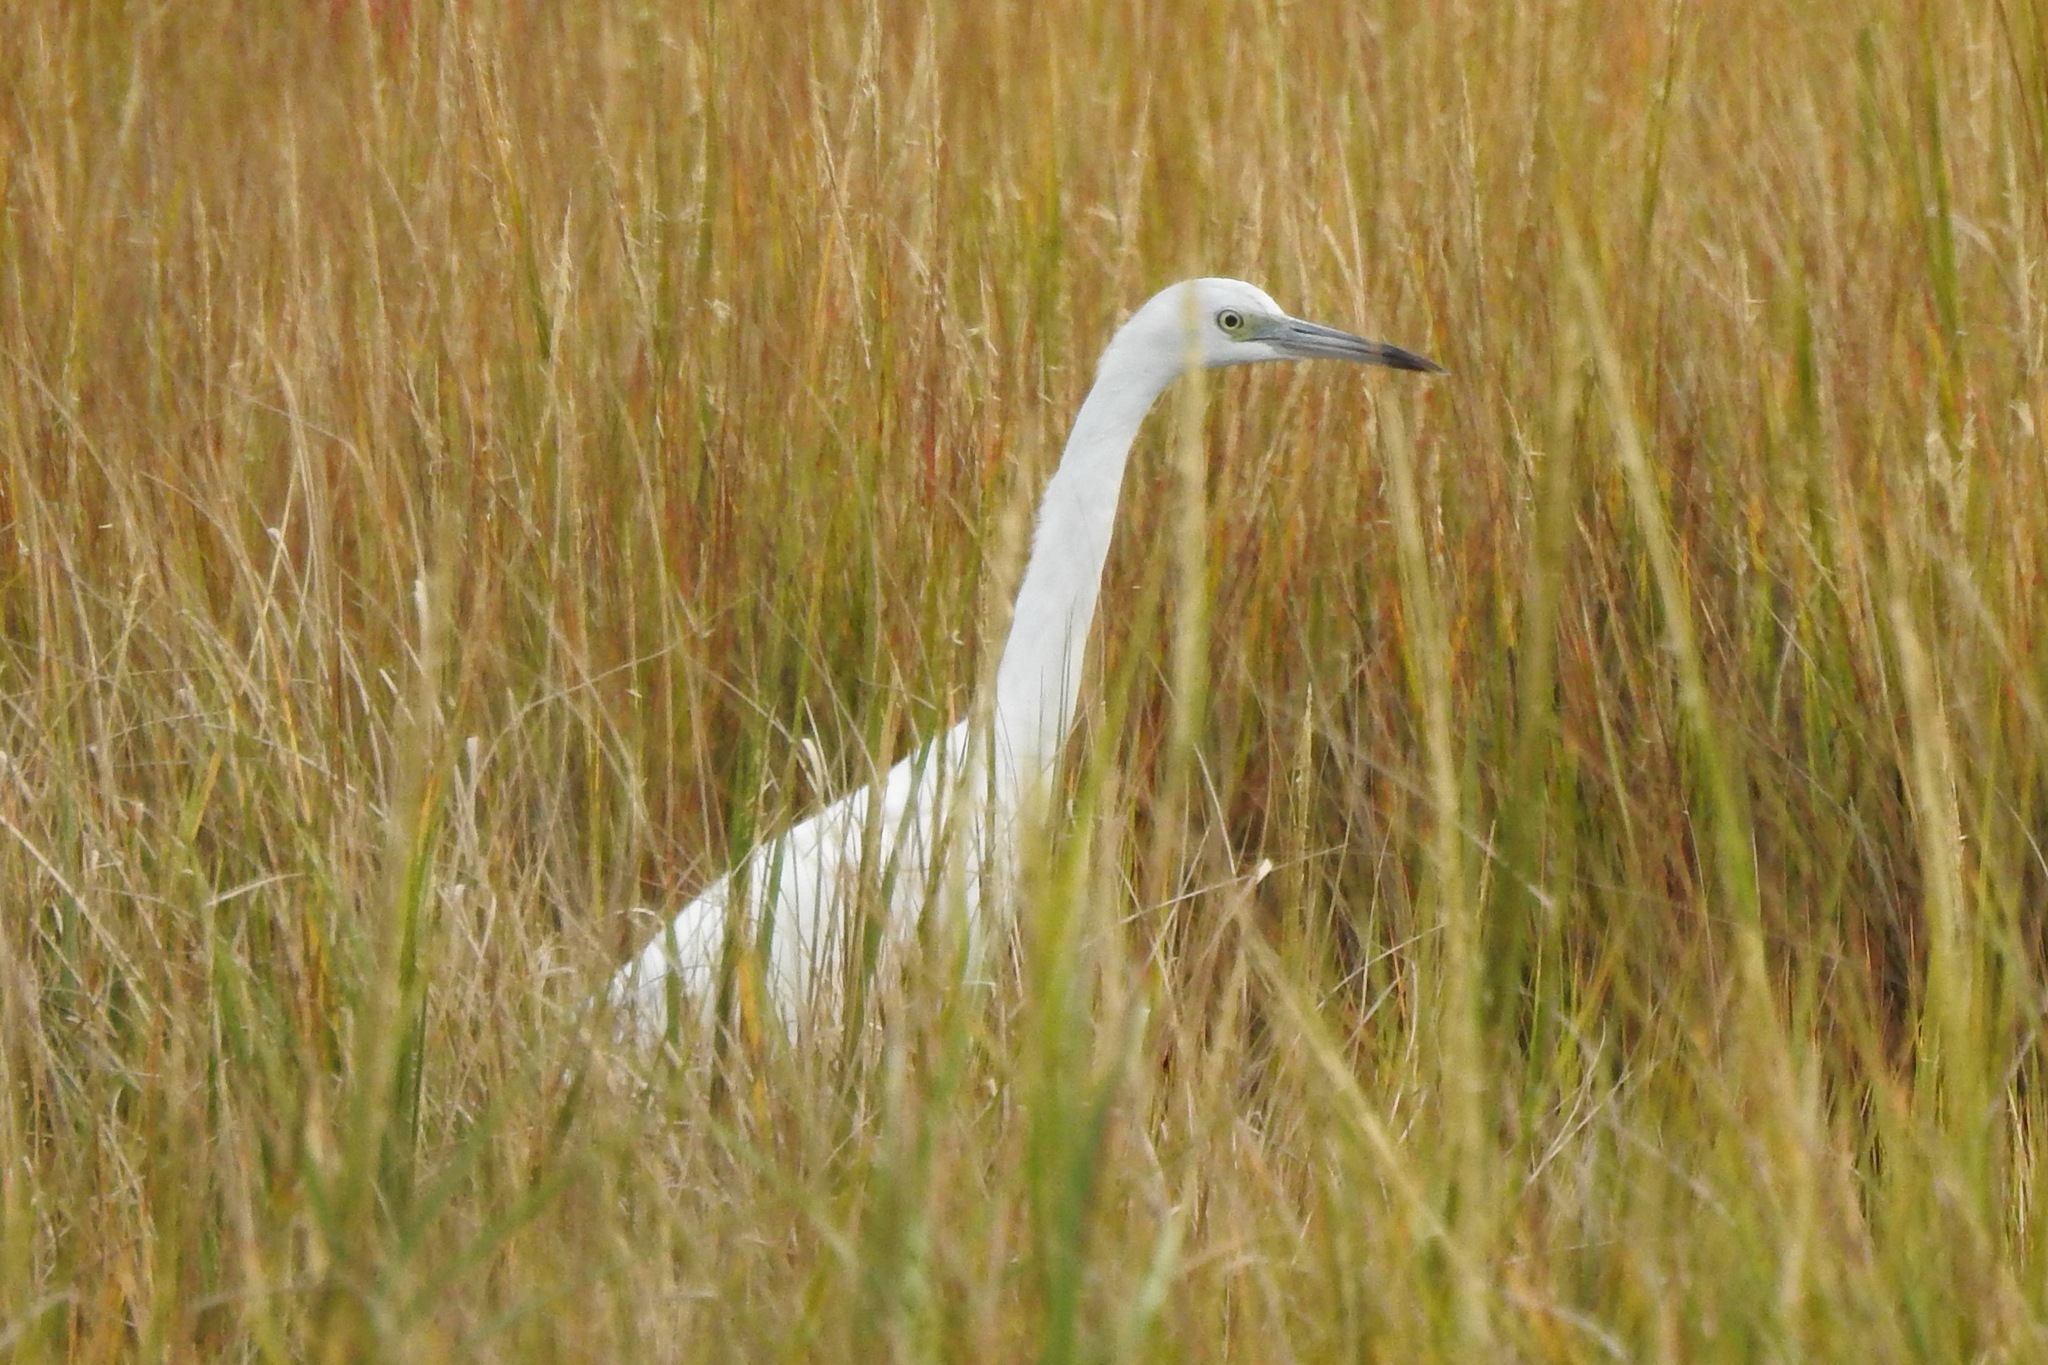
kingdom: Animalia
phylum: Chordata
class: Aves
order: Pelecaniformes
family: Ardeidae
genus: Egretta
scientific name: Egretta caerulea
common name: Little blue heron
